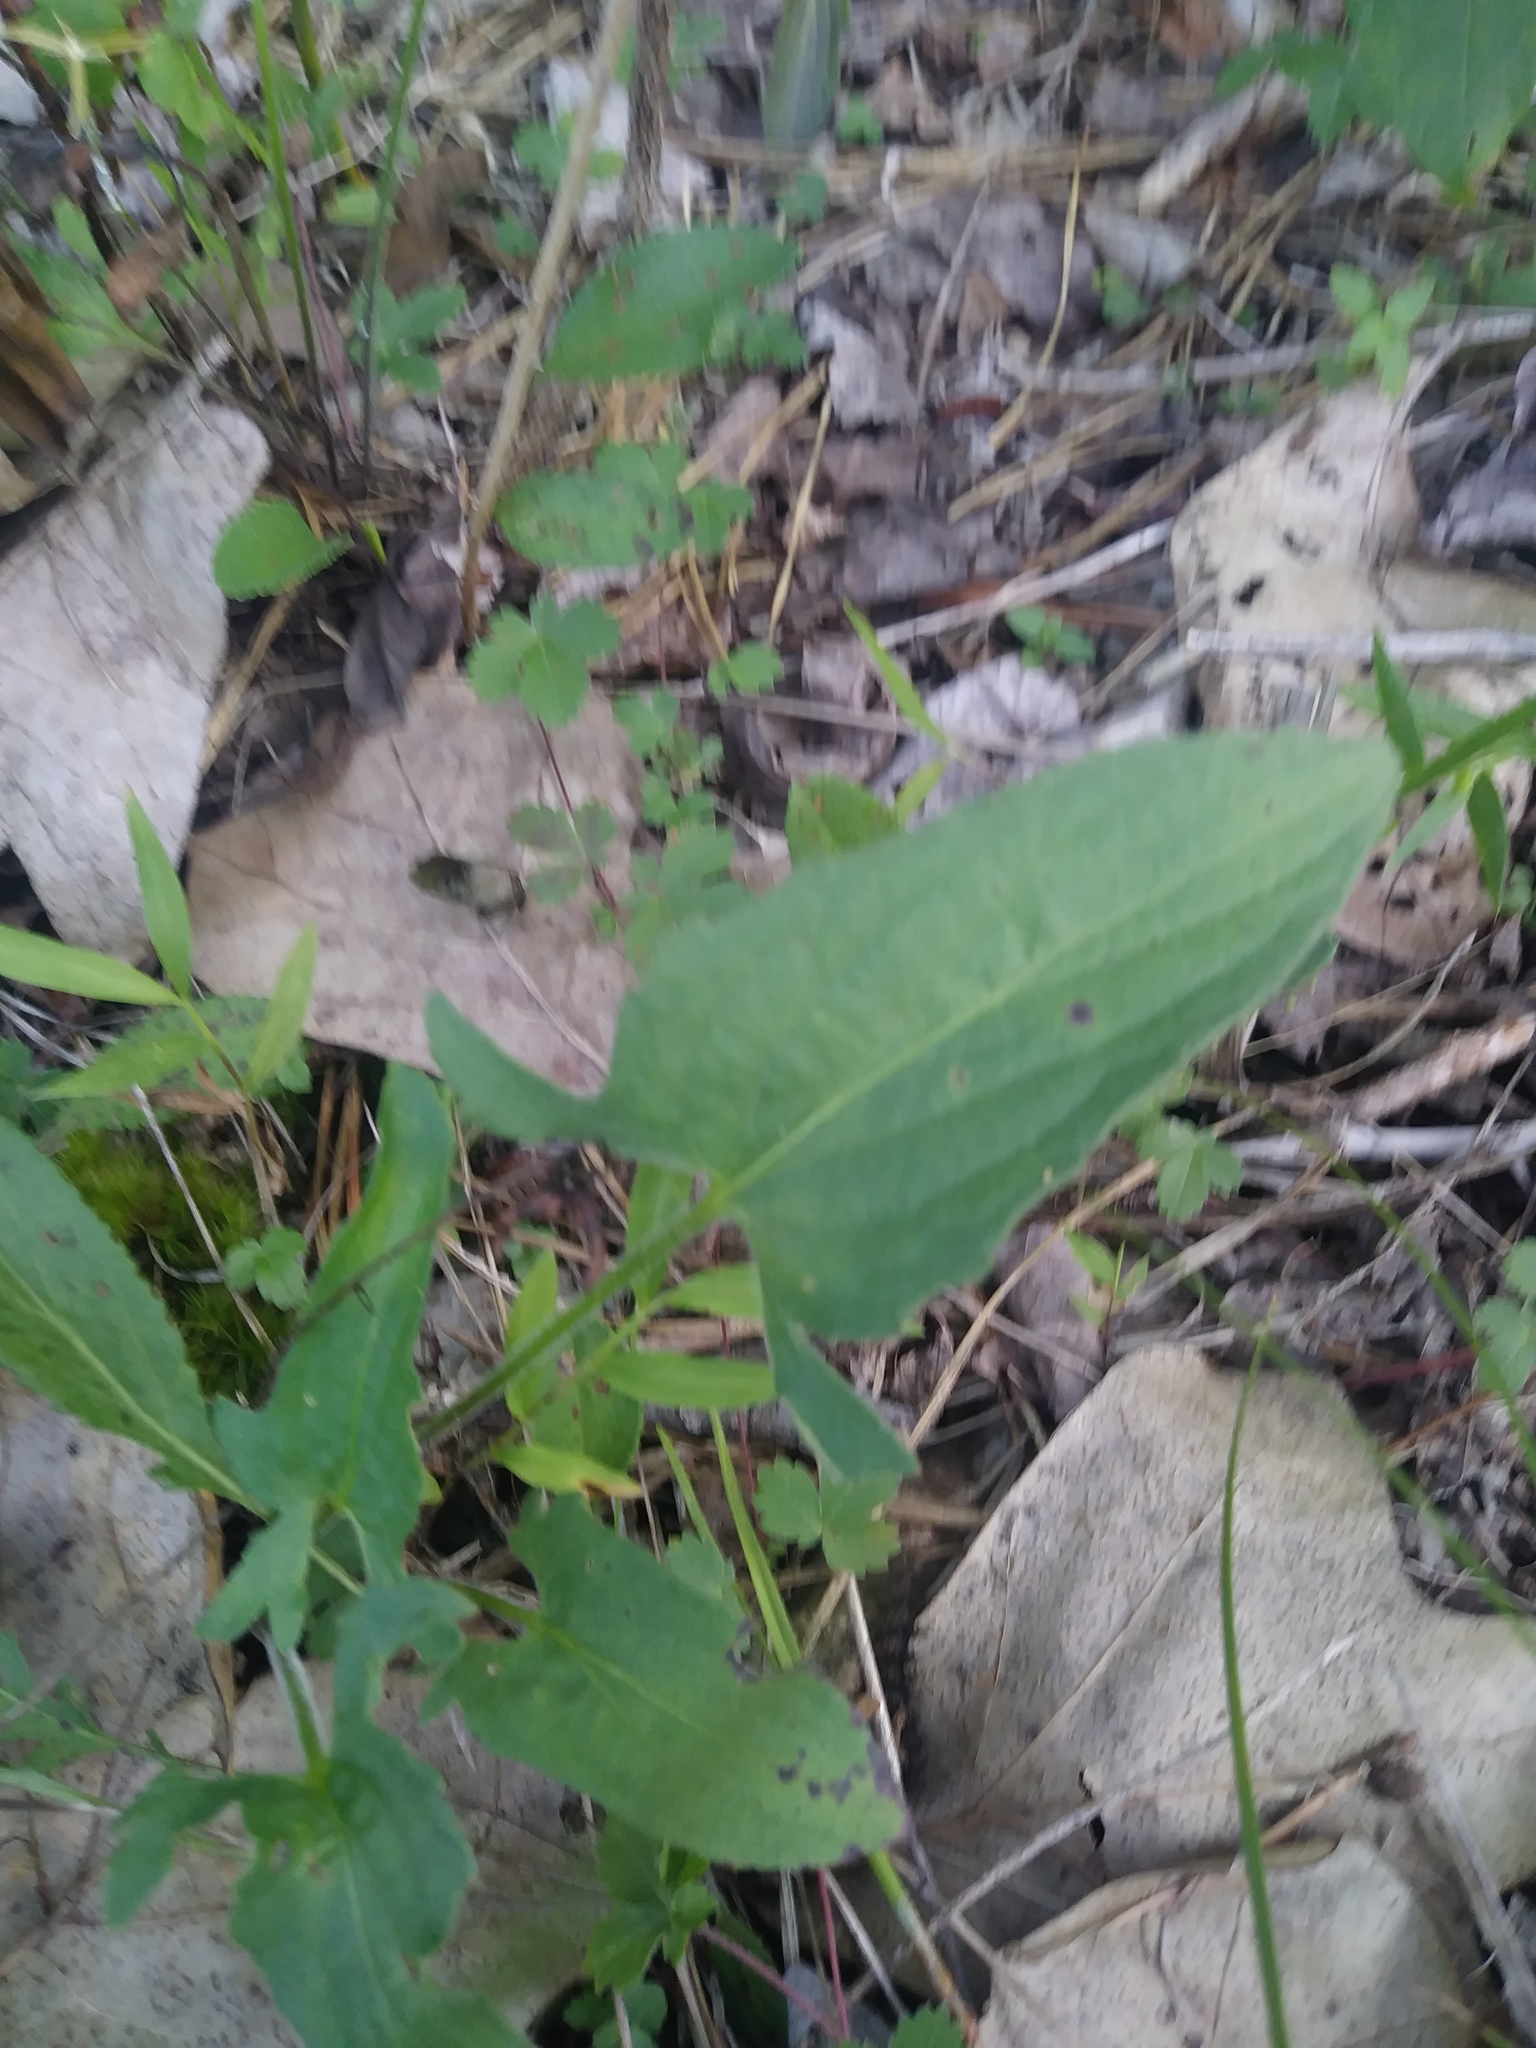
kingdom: Plantae
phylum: Tracheophyta
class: Magnoliopsida
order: Malpighiales
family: Violaceae
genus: Viola
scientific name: Viola sagittata
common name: Arrowhead violet
